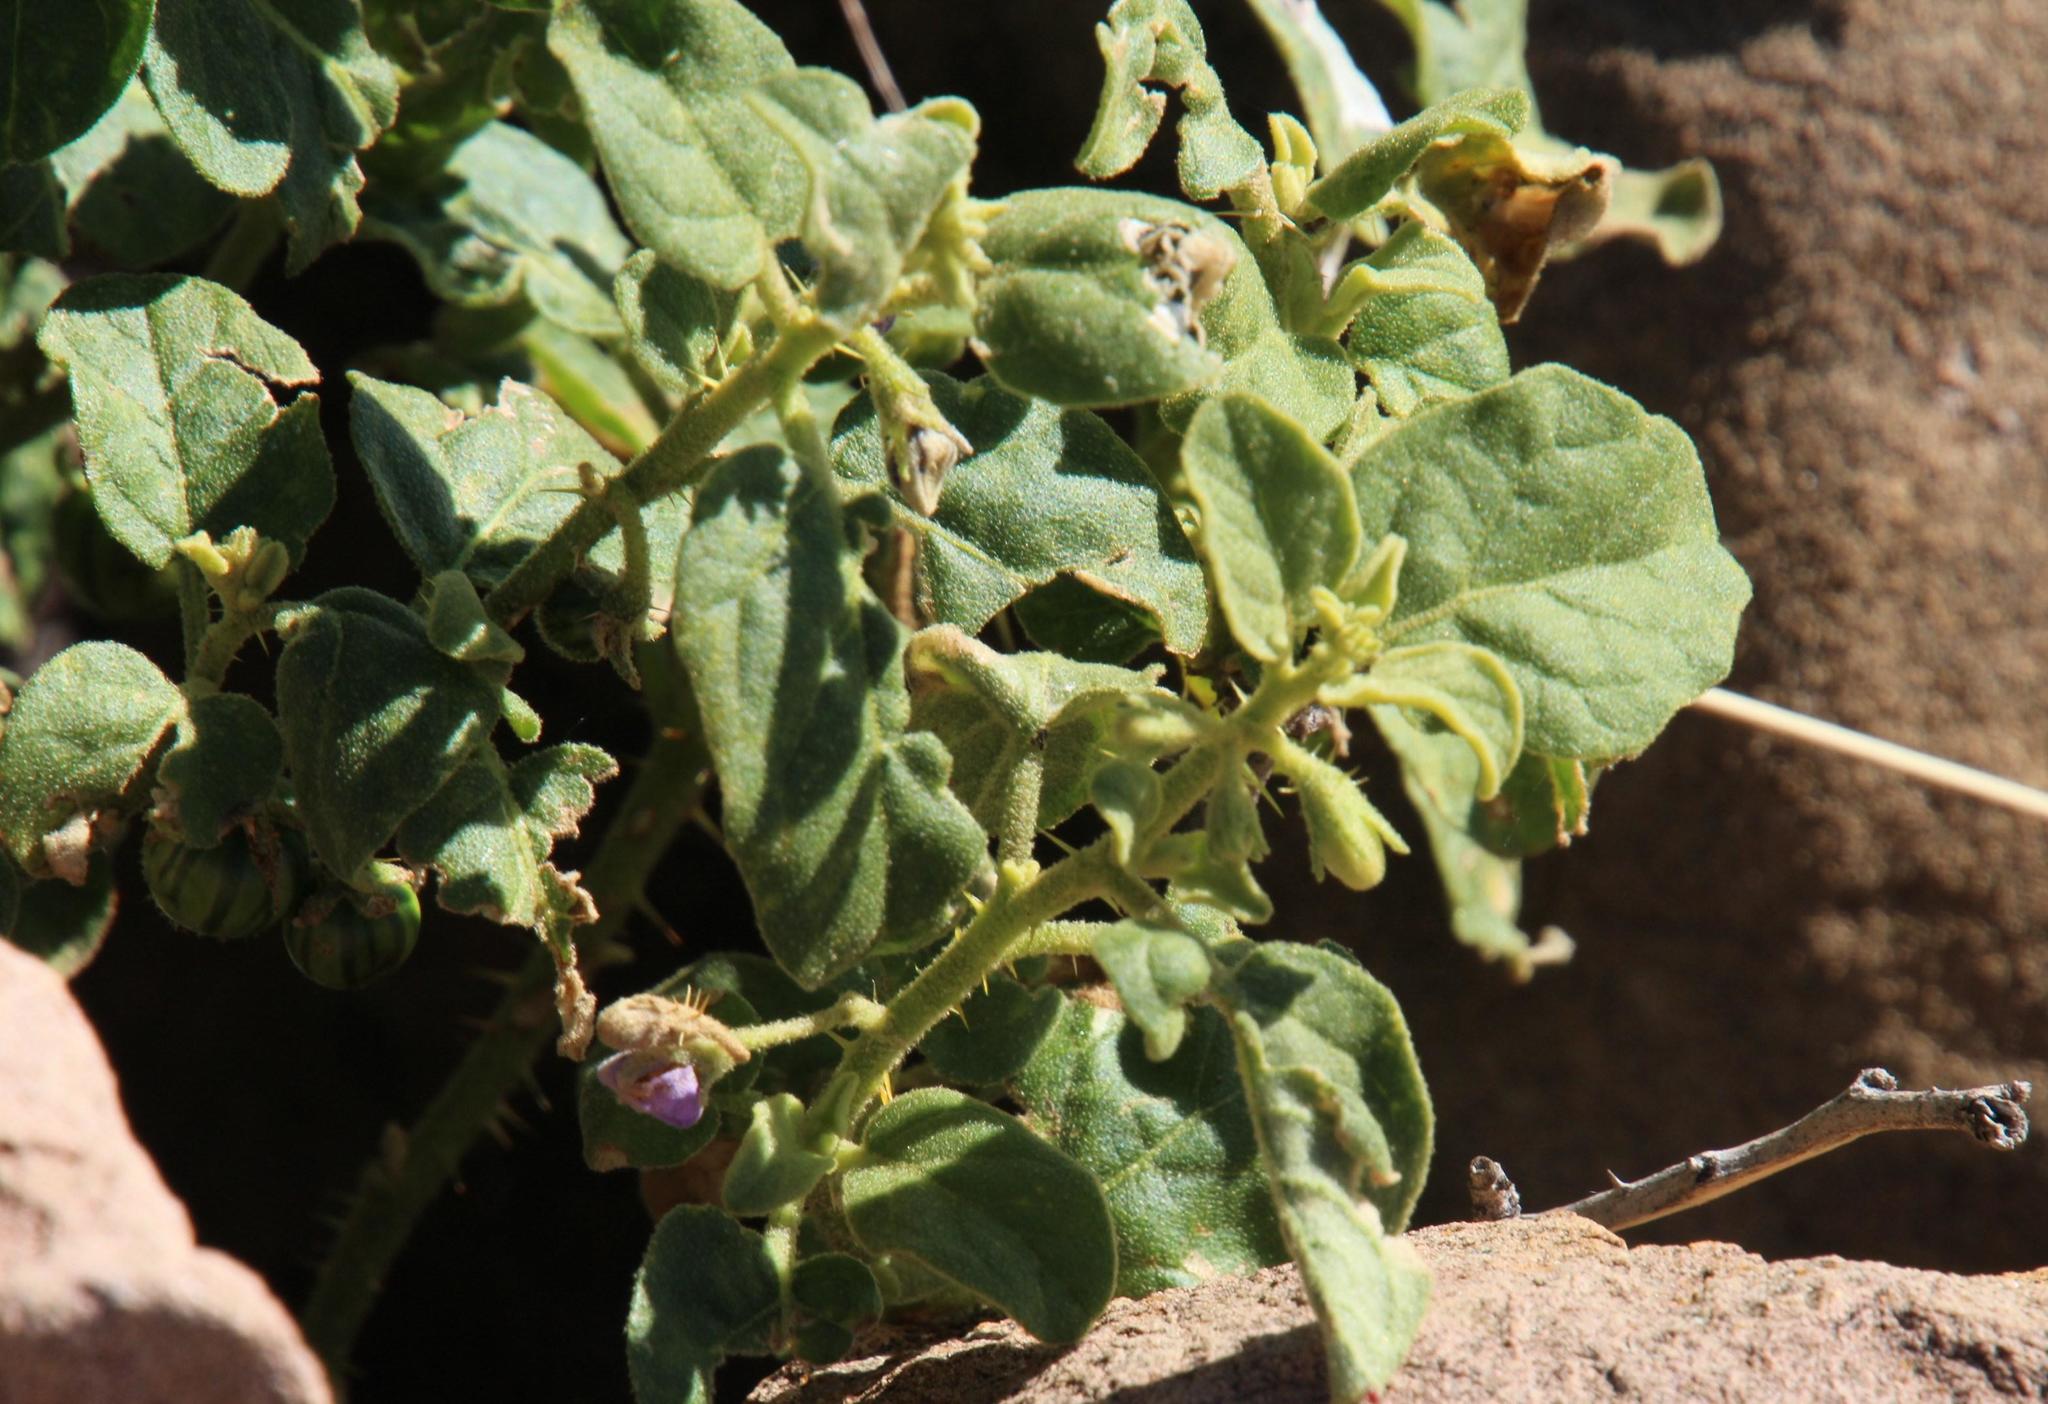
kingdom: Plantae
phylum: Tracheophyta
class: Magnoliopsida
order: Solanales
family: Solanaceae
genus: Solanum
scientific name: Solanum tomentosum
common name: Wild aubergine
